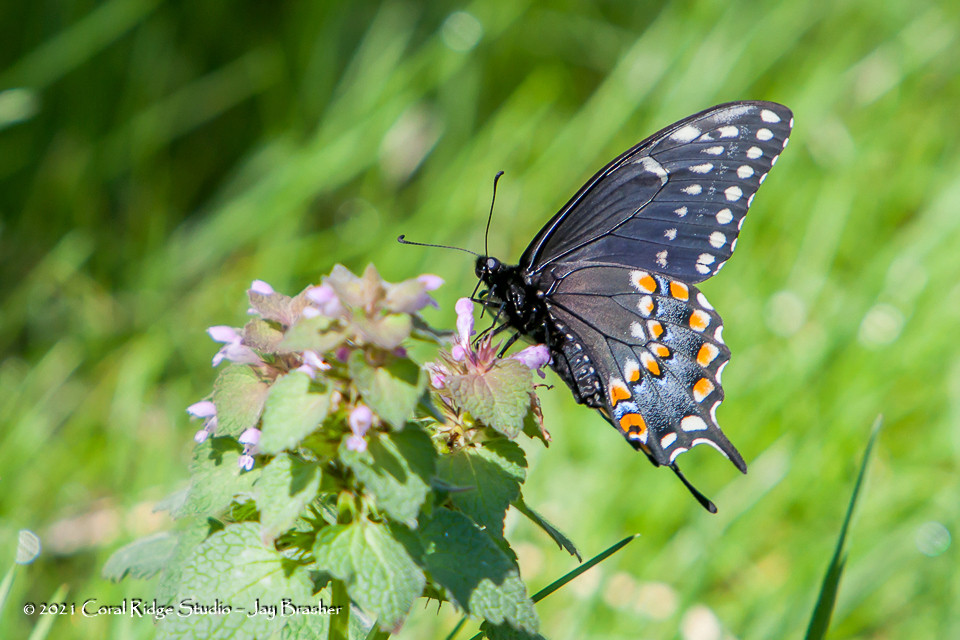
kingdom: Animalia
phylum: Arthropoda
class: Insecta
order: Lepidoptera
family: Papilionidae
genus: Papilio
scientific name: Papilio polyxenes
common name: Black swallowtail
